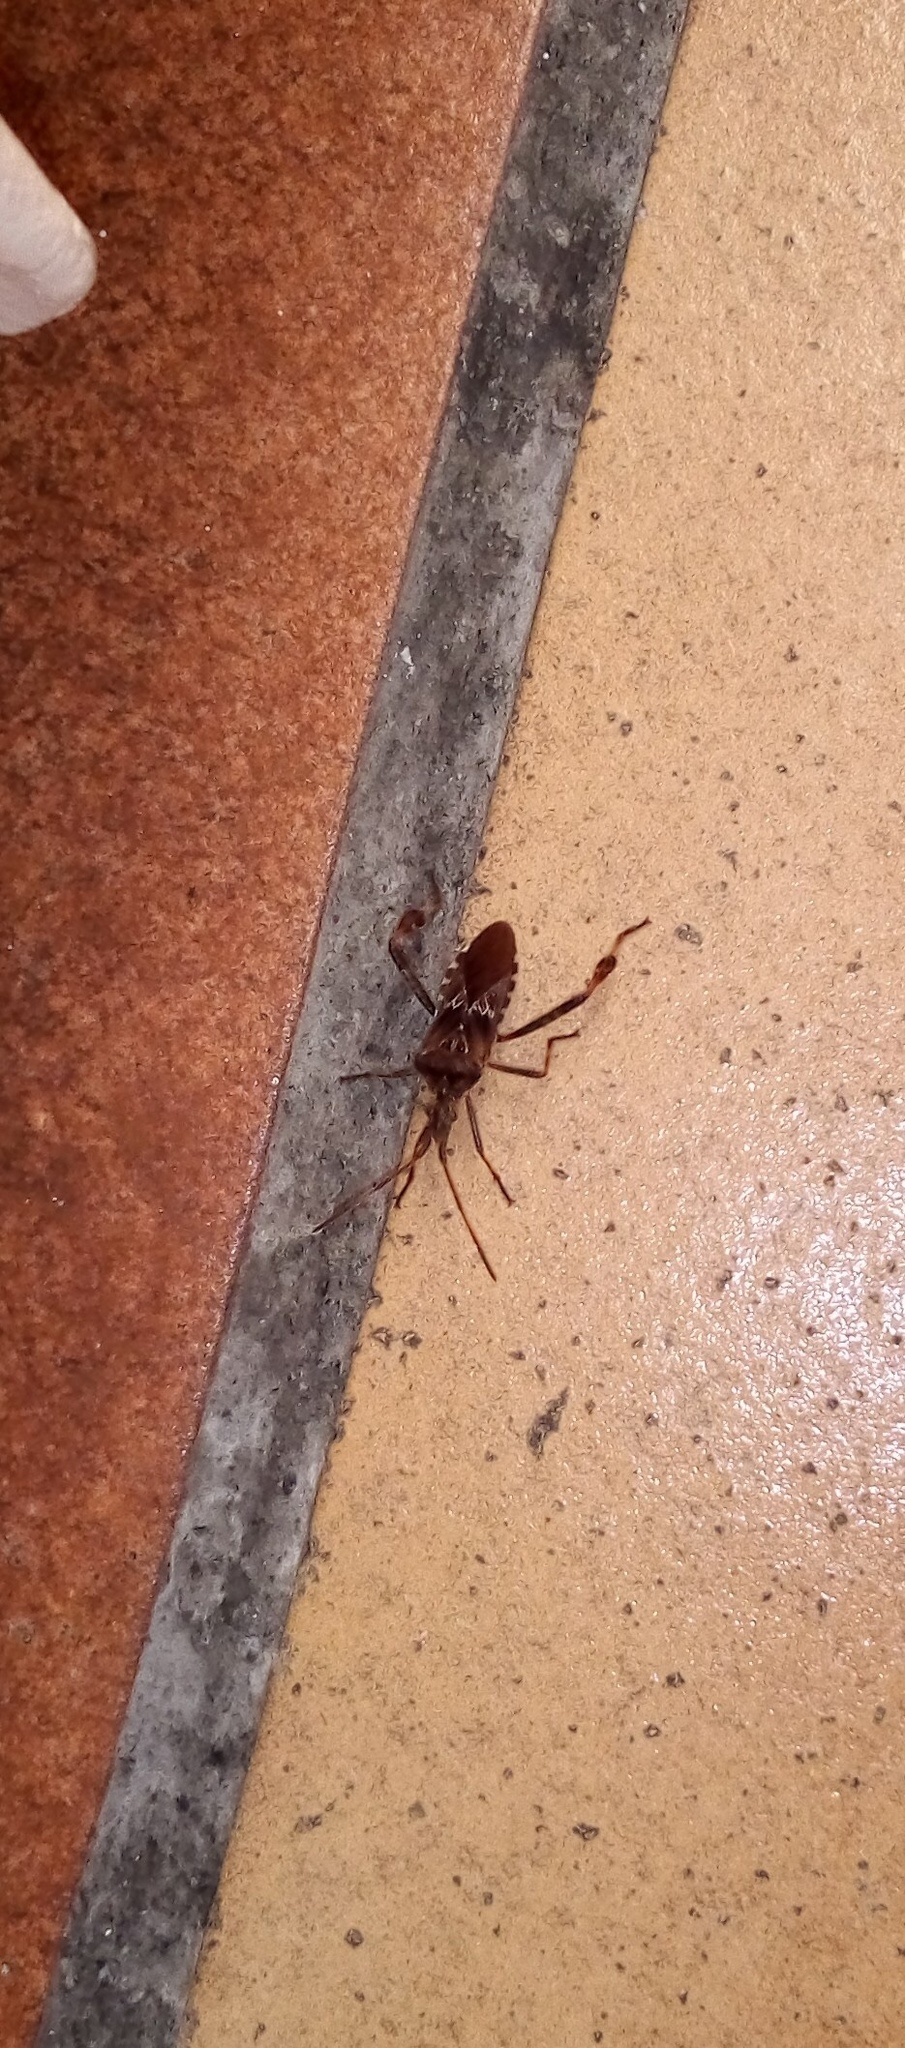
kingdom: Animalia
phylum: Arthropoda
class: Insecta
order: Hemiptera
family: Coreidae
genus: Leptoglossus
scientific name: Leptoglossus occidentalis
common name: Western conifer-seed bug
